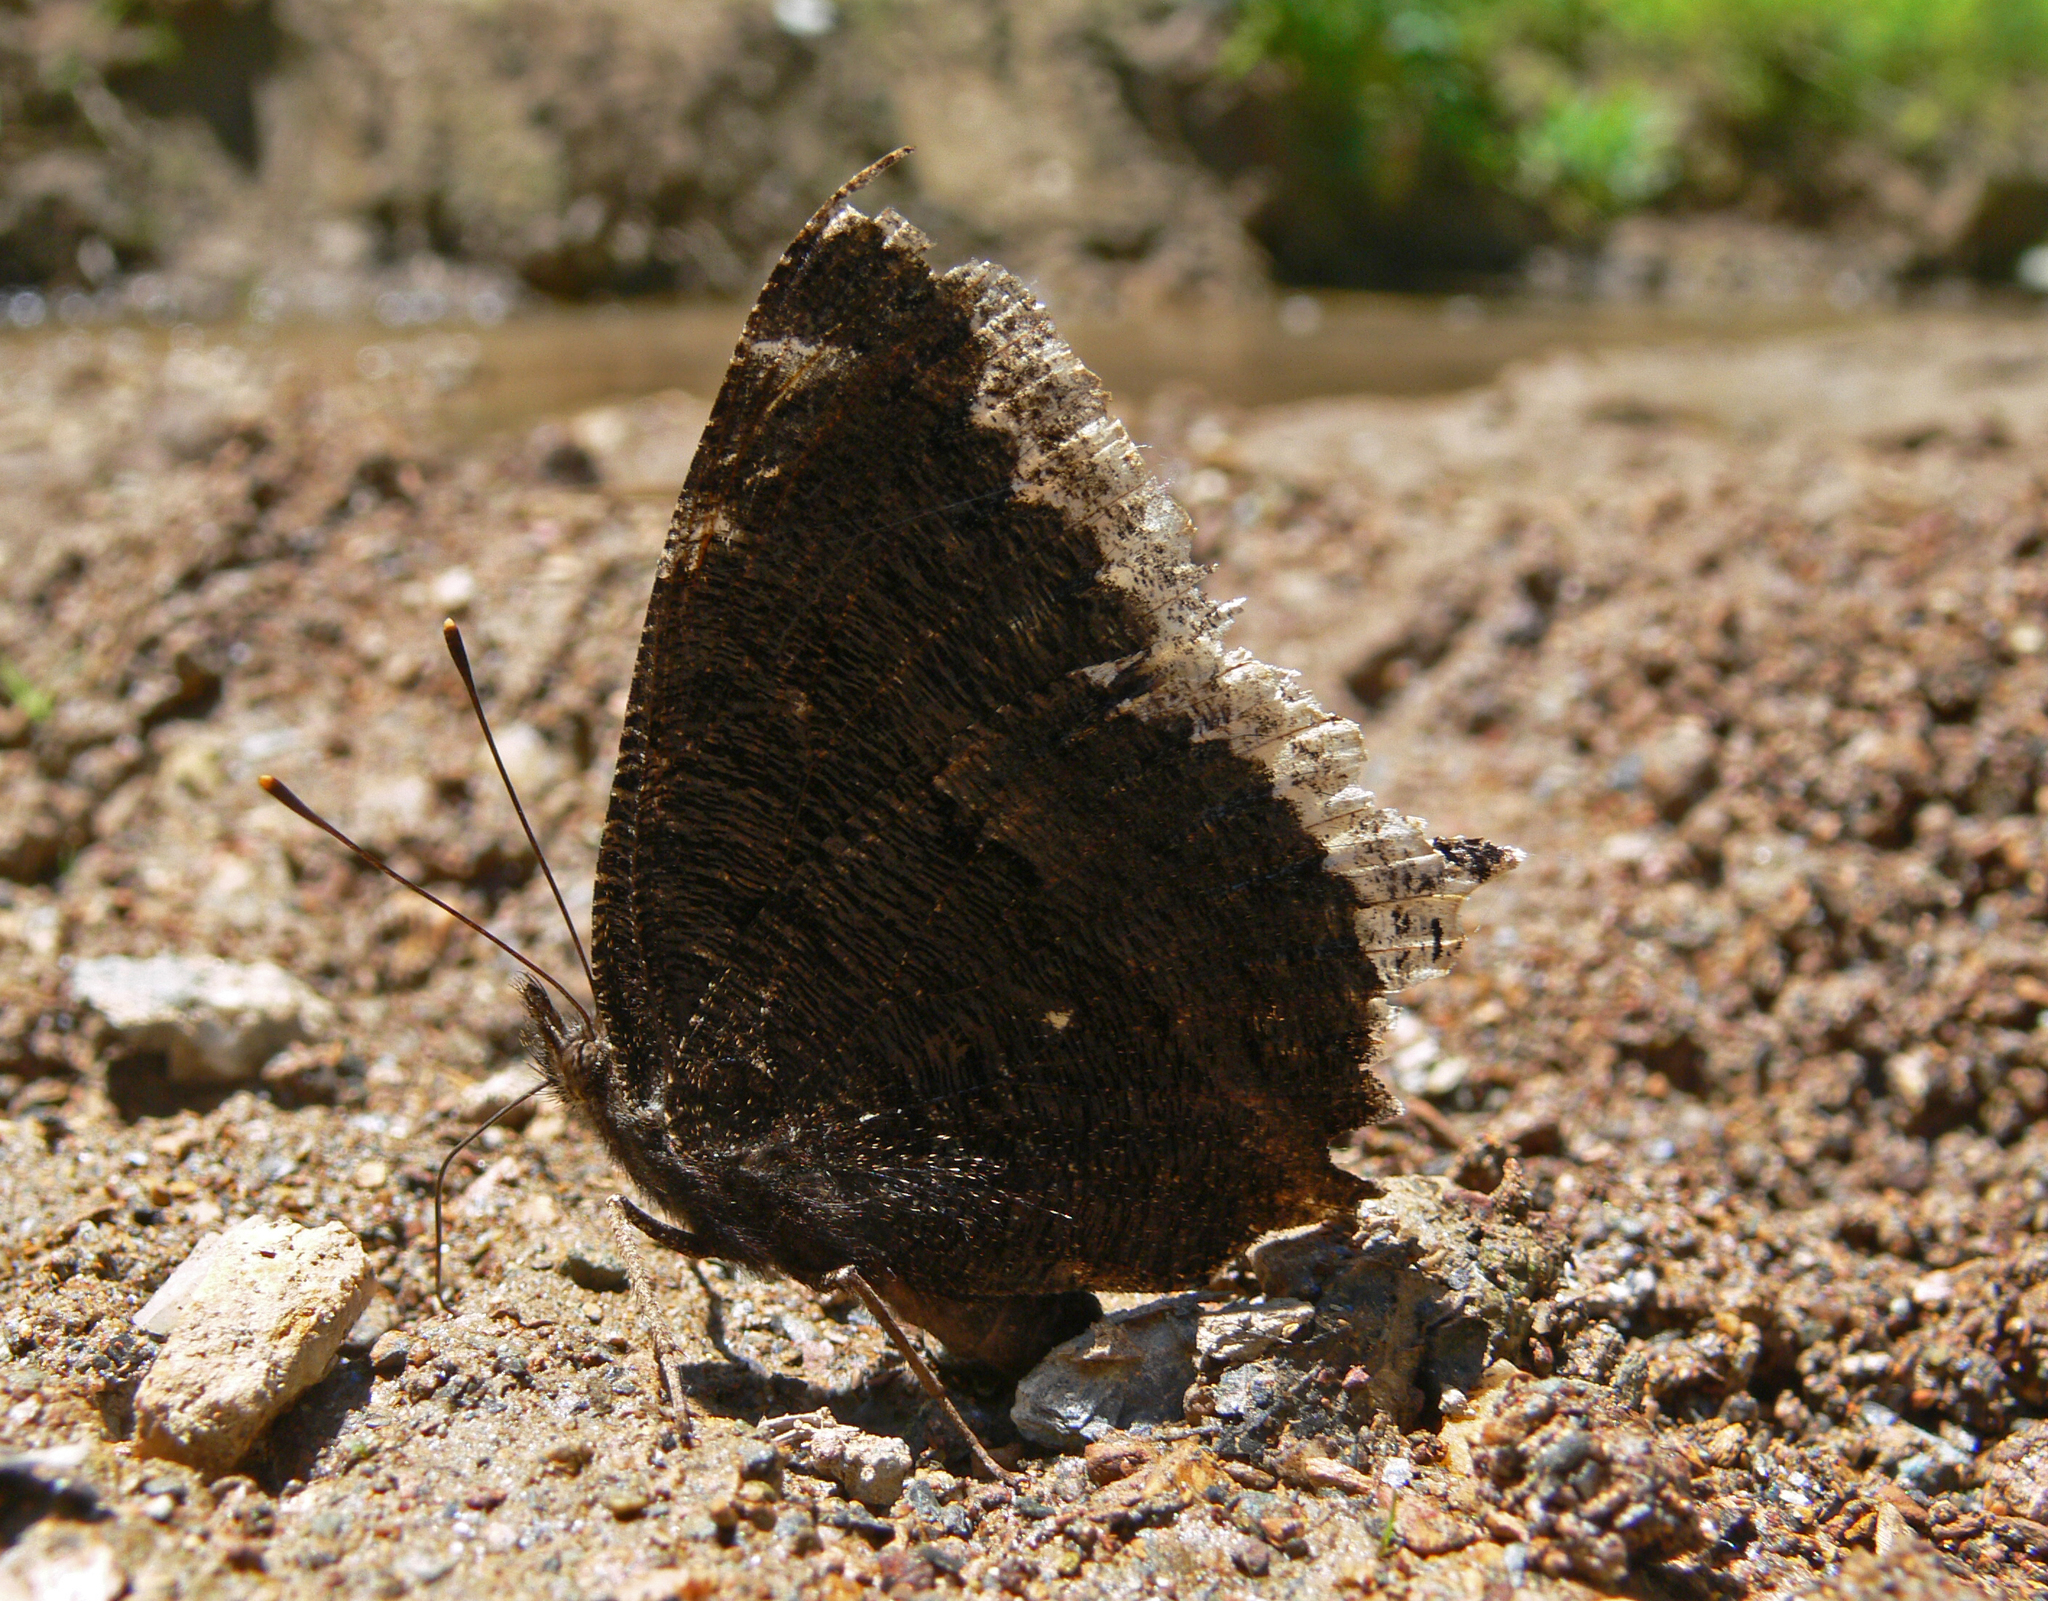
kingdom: Animalia
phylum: Arthropoda
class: Insecta
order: Lepidoptera
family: Nymphalidae
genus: Nymphalis
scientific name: Nymphalis antiopa
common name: Camberwell beauty
